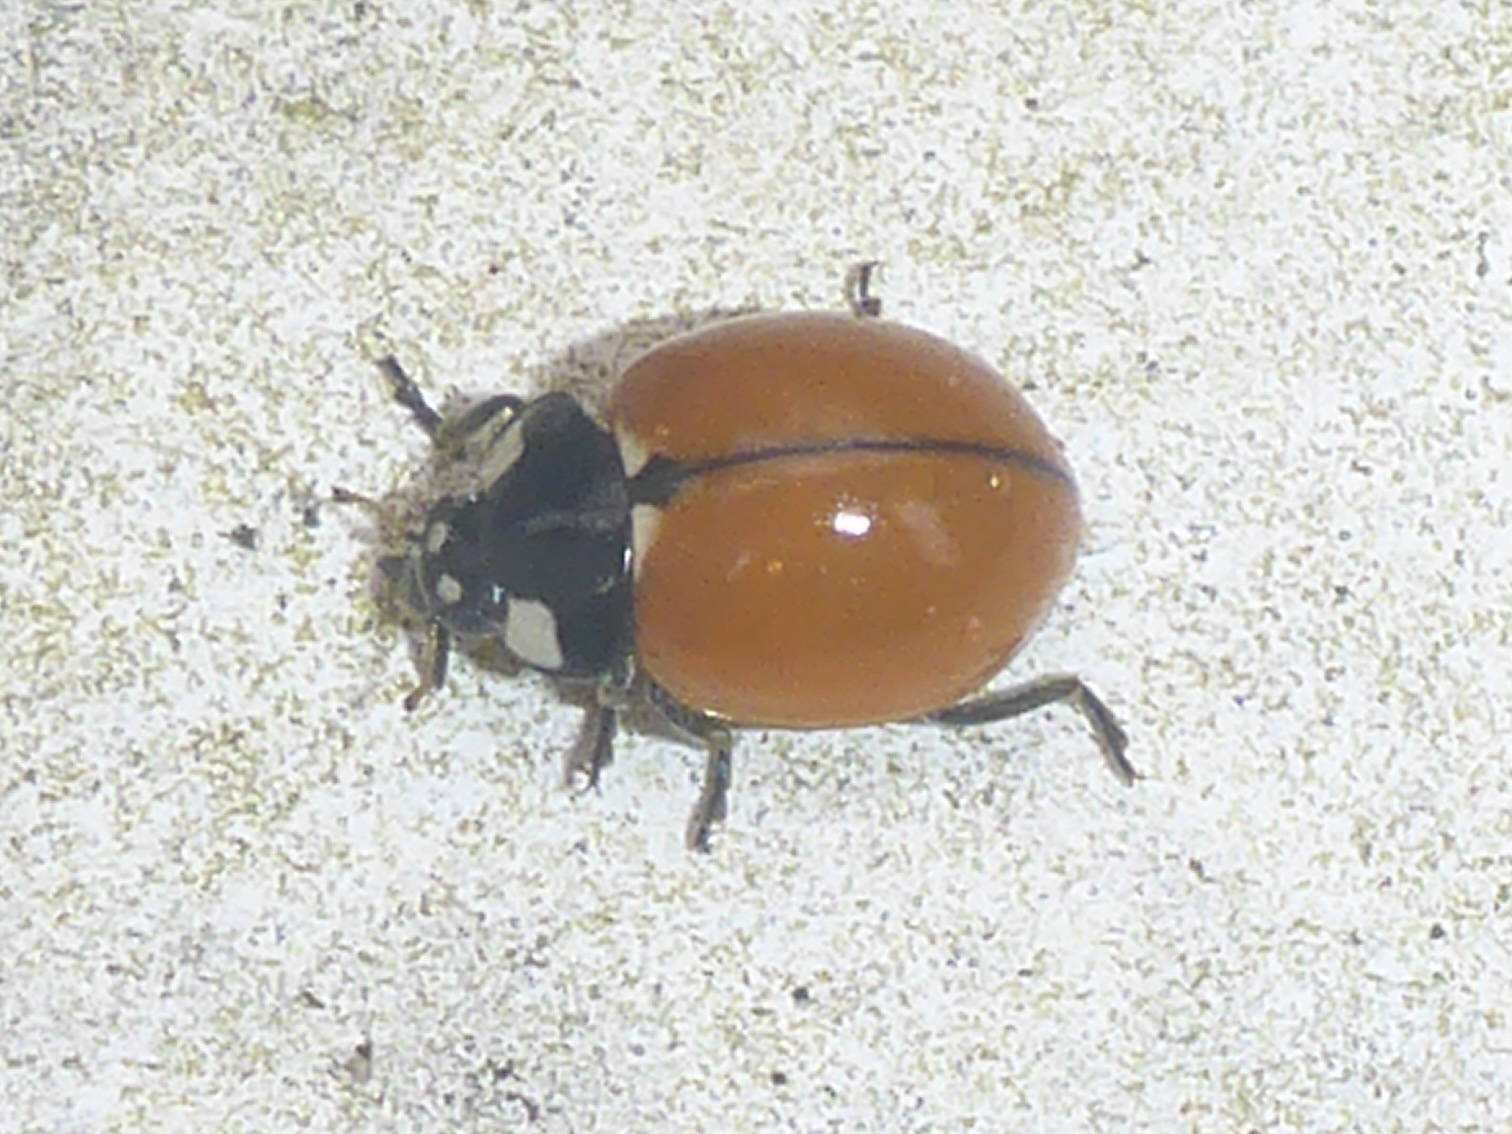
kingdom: Animalia
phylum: Arthropoda
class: Insecta
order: Coleoptera
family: Coccinellidae
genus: Coccinella
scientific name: Coccinella californica
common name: Lady beetle
